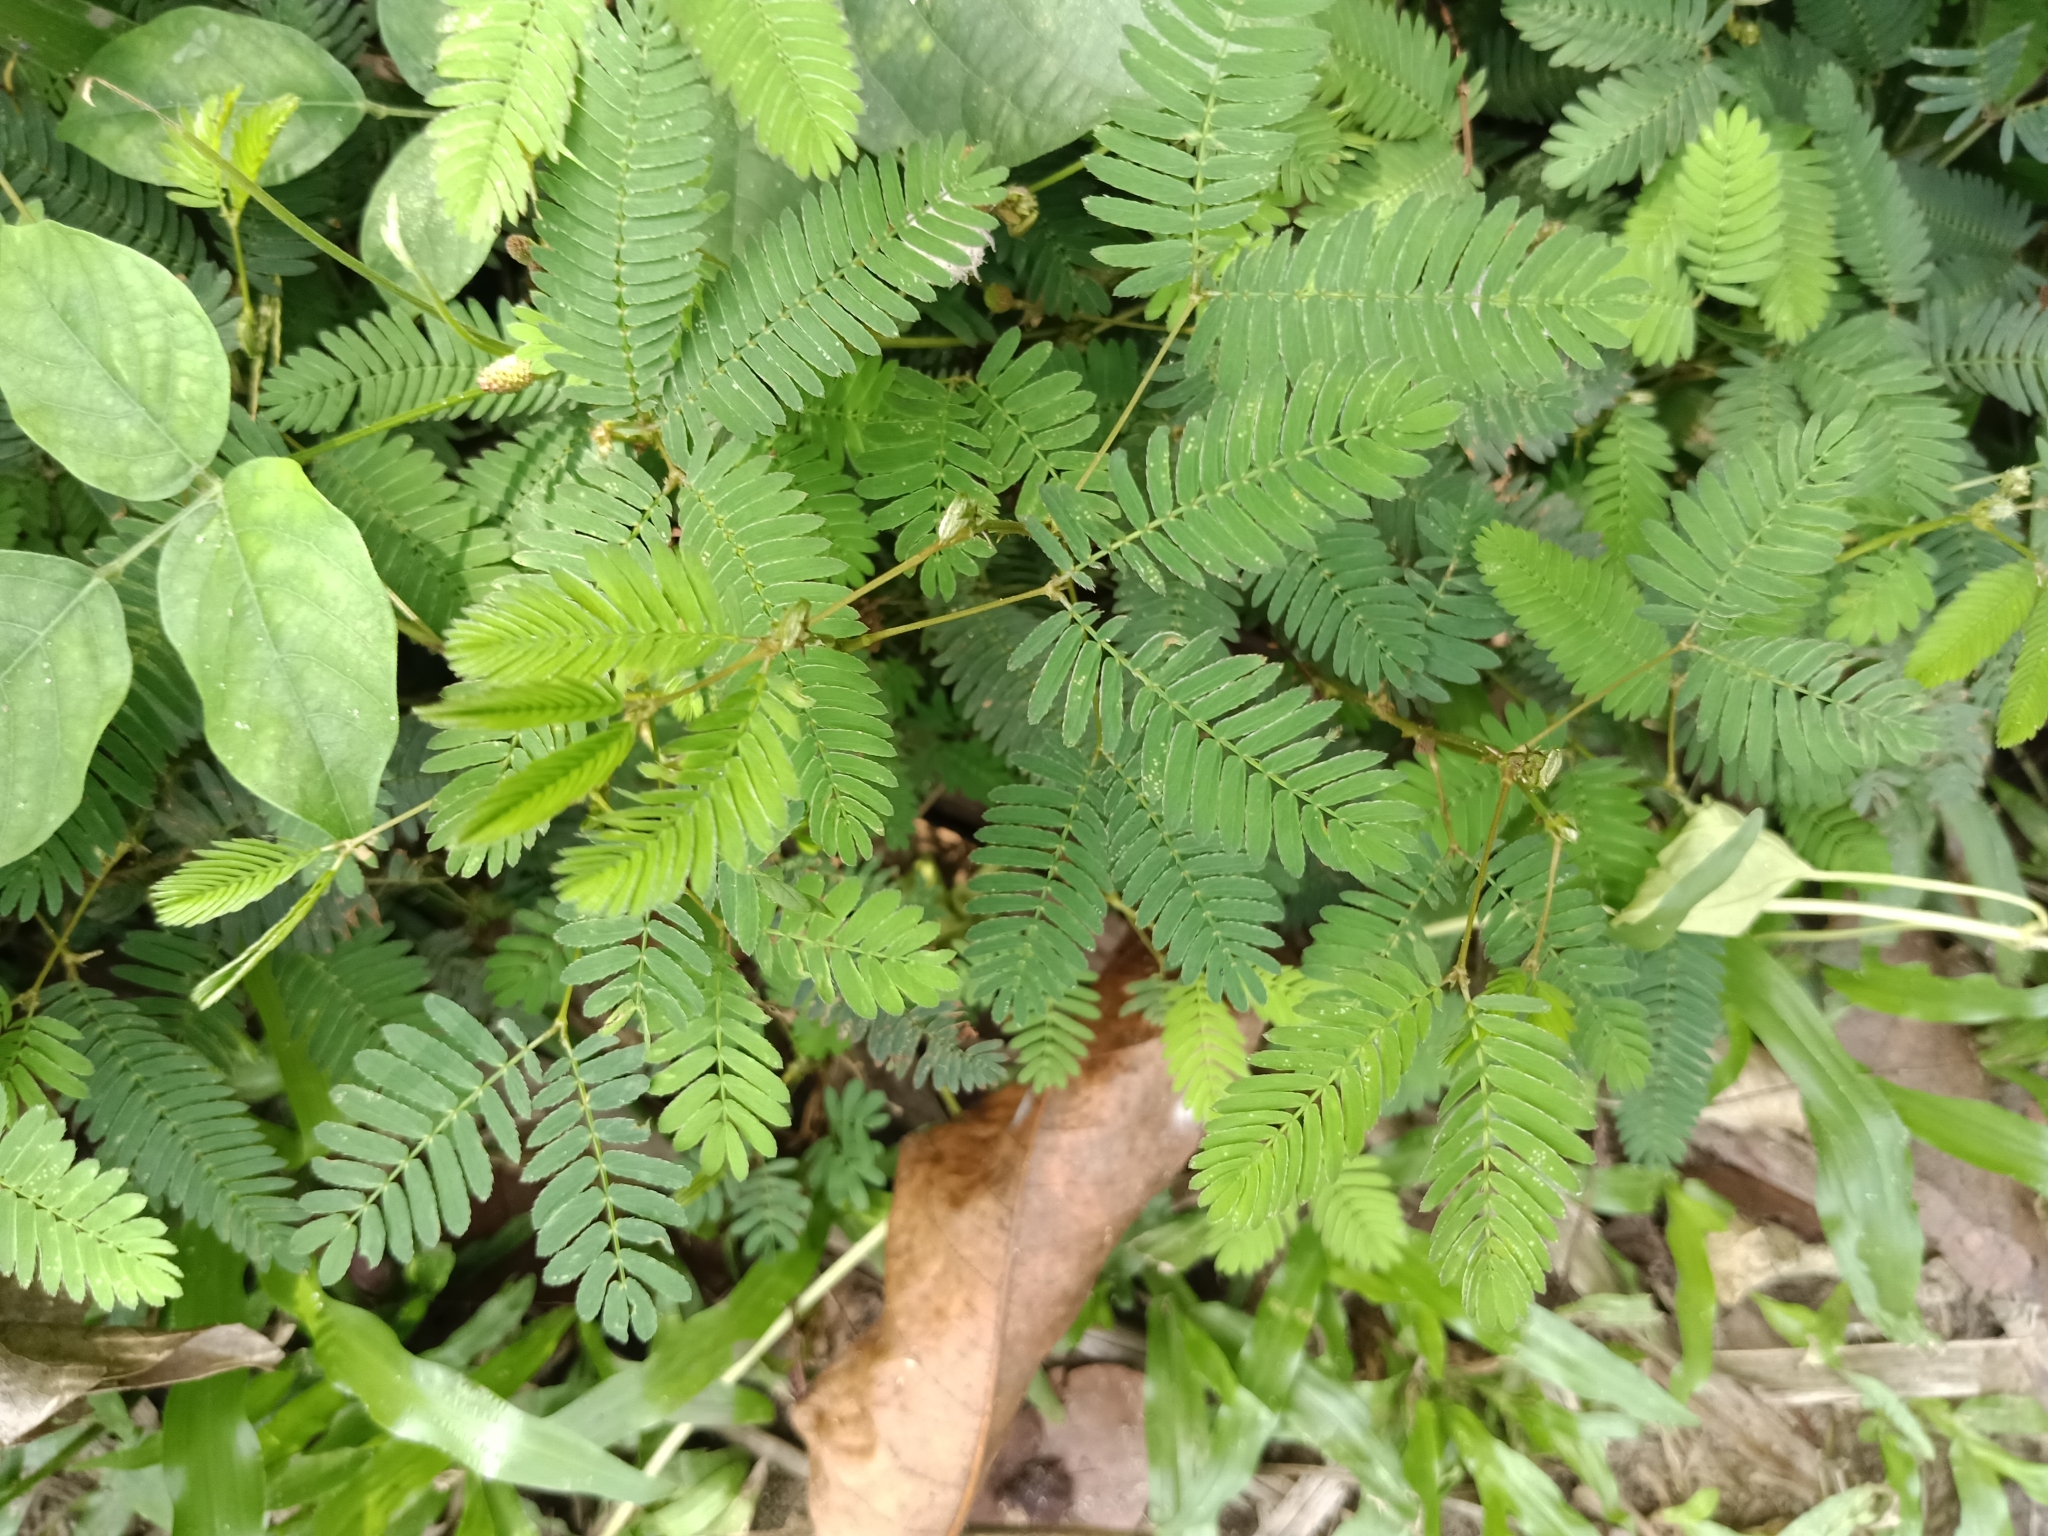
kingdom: Plantae
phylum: Tracheophyta
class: Magnoliopsida
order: Fabales
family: Fabaceae
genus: Mimosa
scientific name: Mimosa pudica
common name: Sensitive plant
